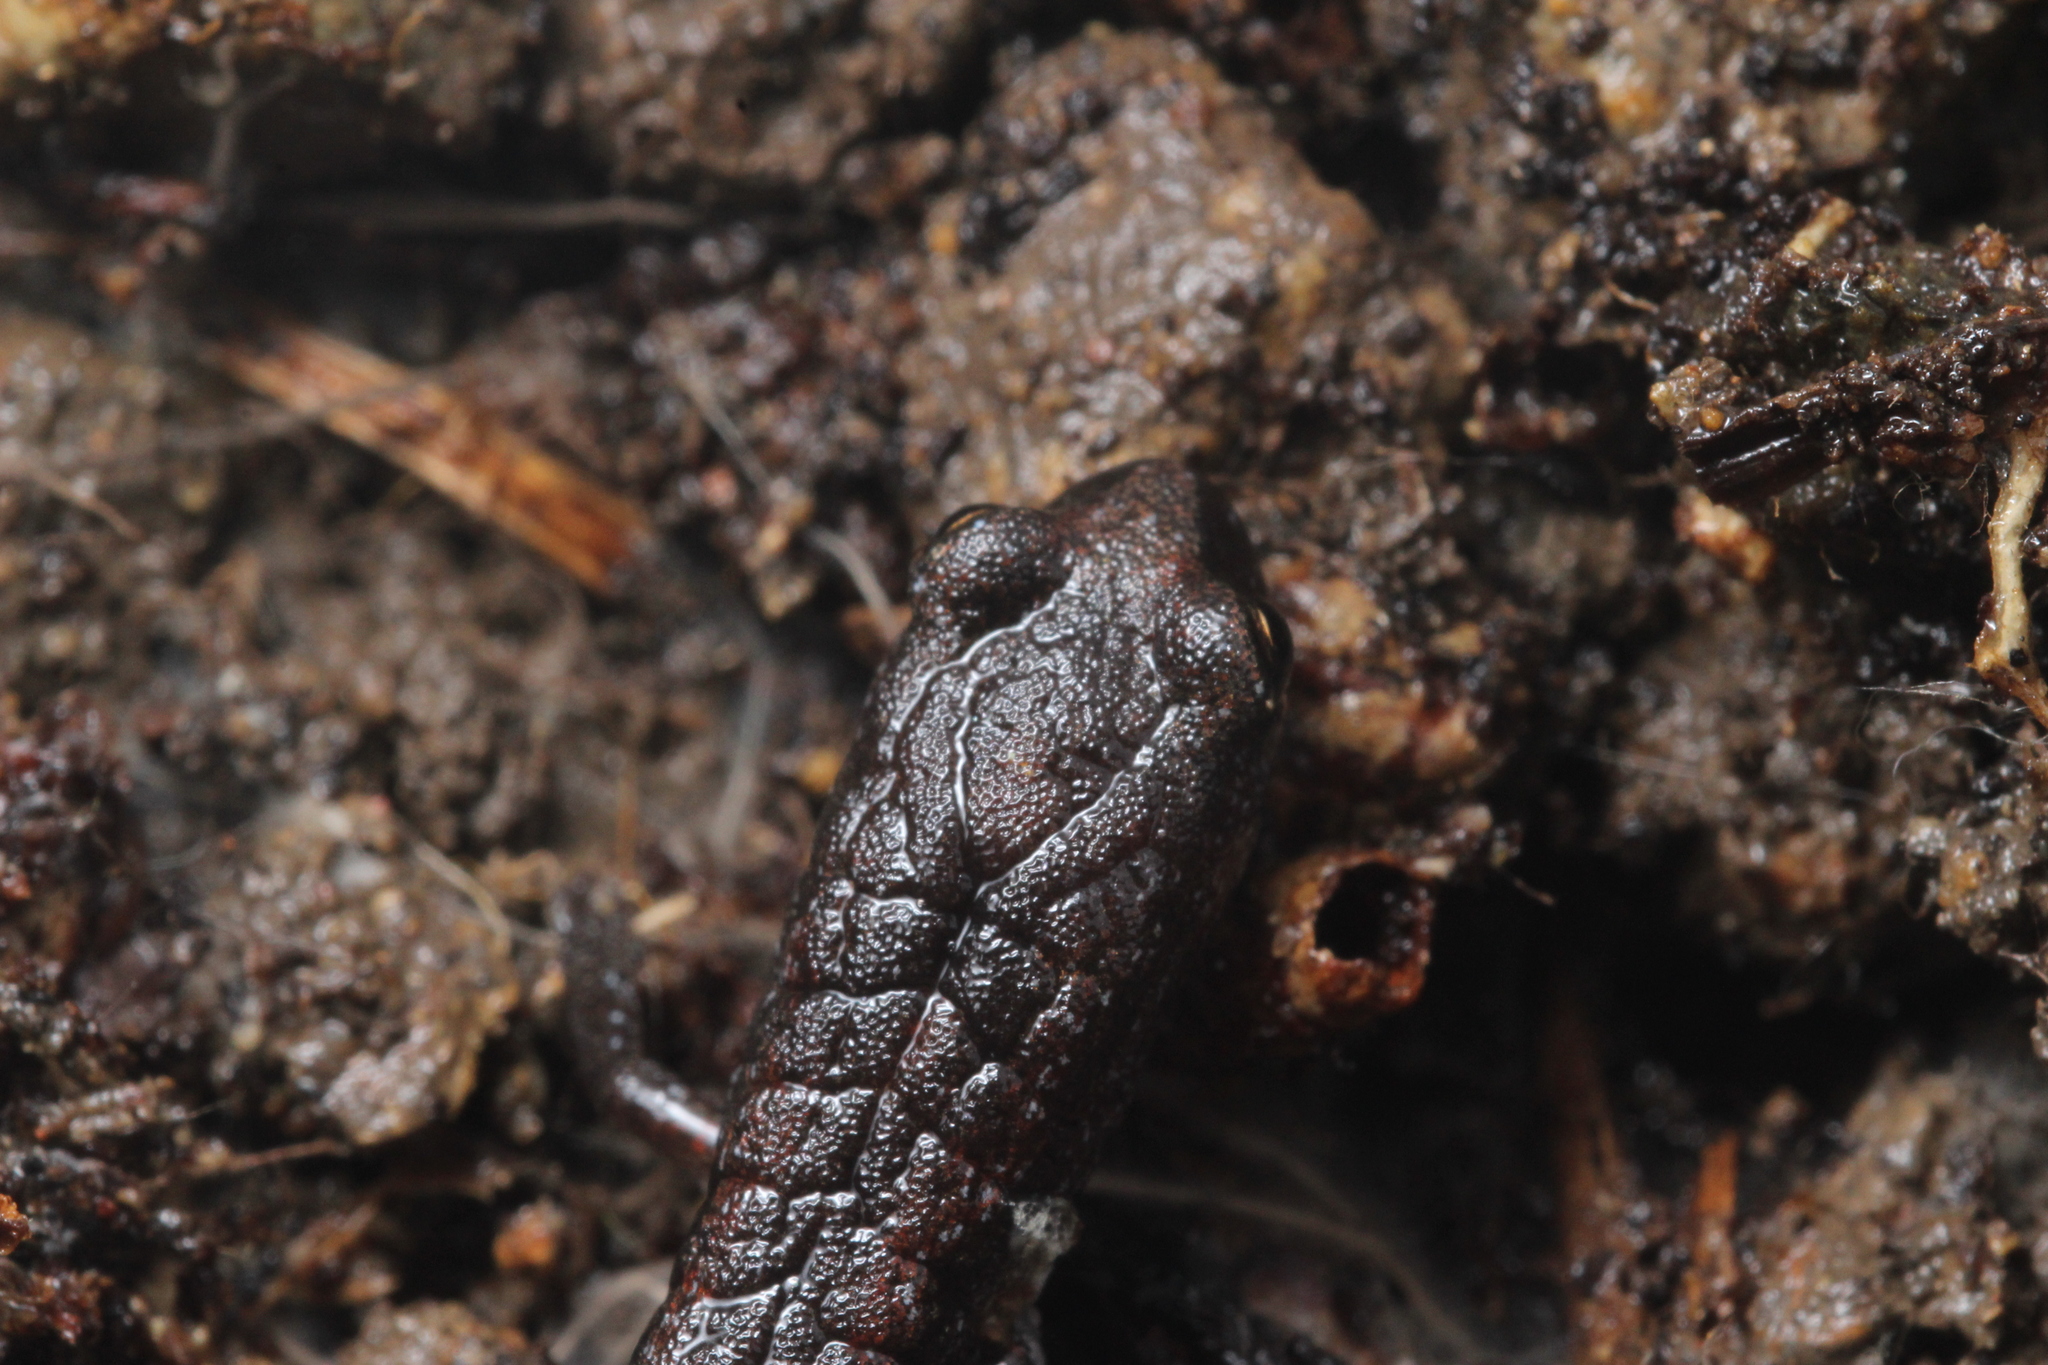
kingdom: Animalia
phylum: Chordata
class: Amphibia
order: Caudata
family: Plethodontidae
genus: Batrachoseps
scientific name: Batrachoseps attenuatus
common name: California slender salamander
